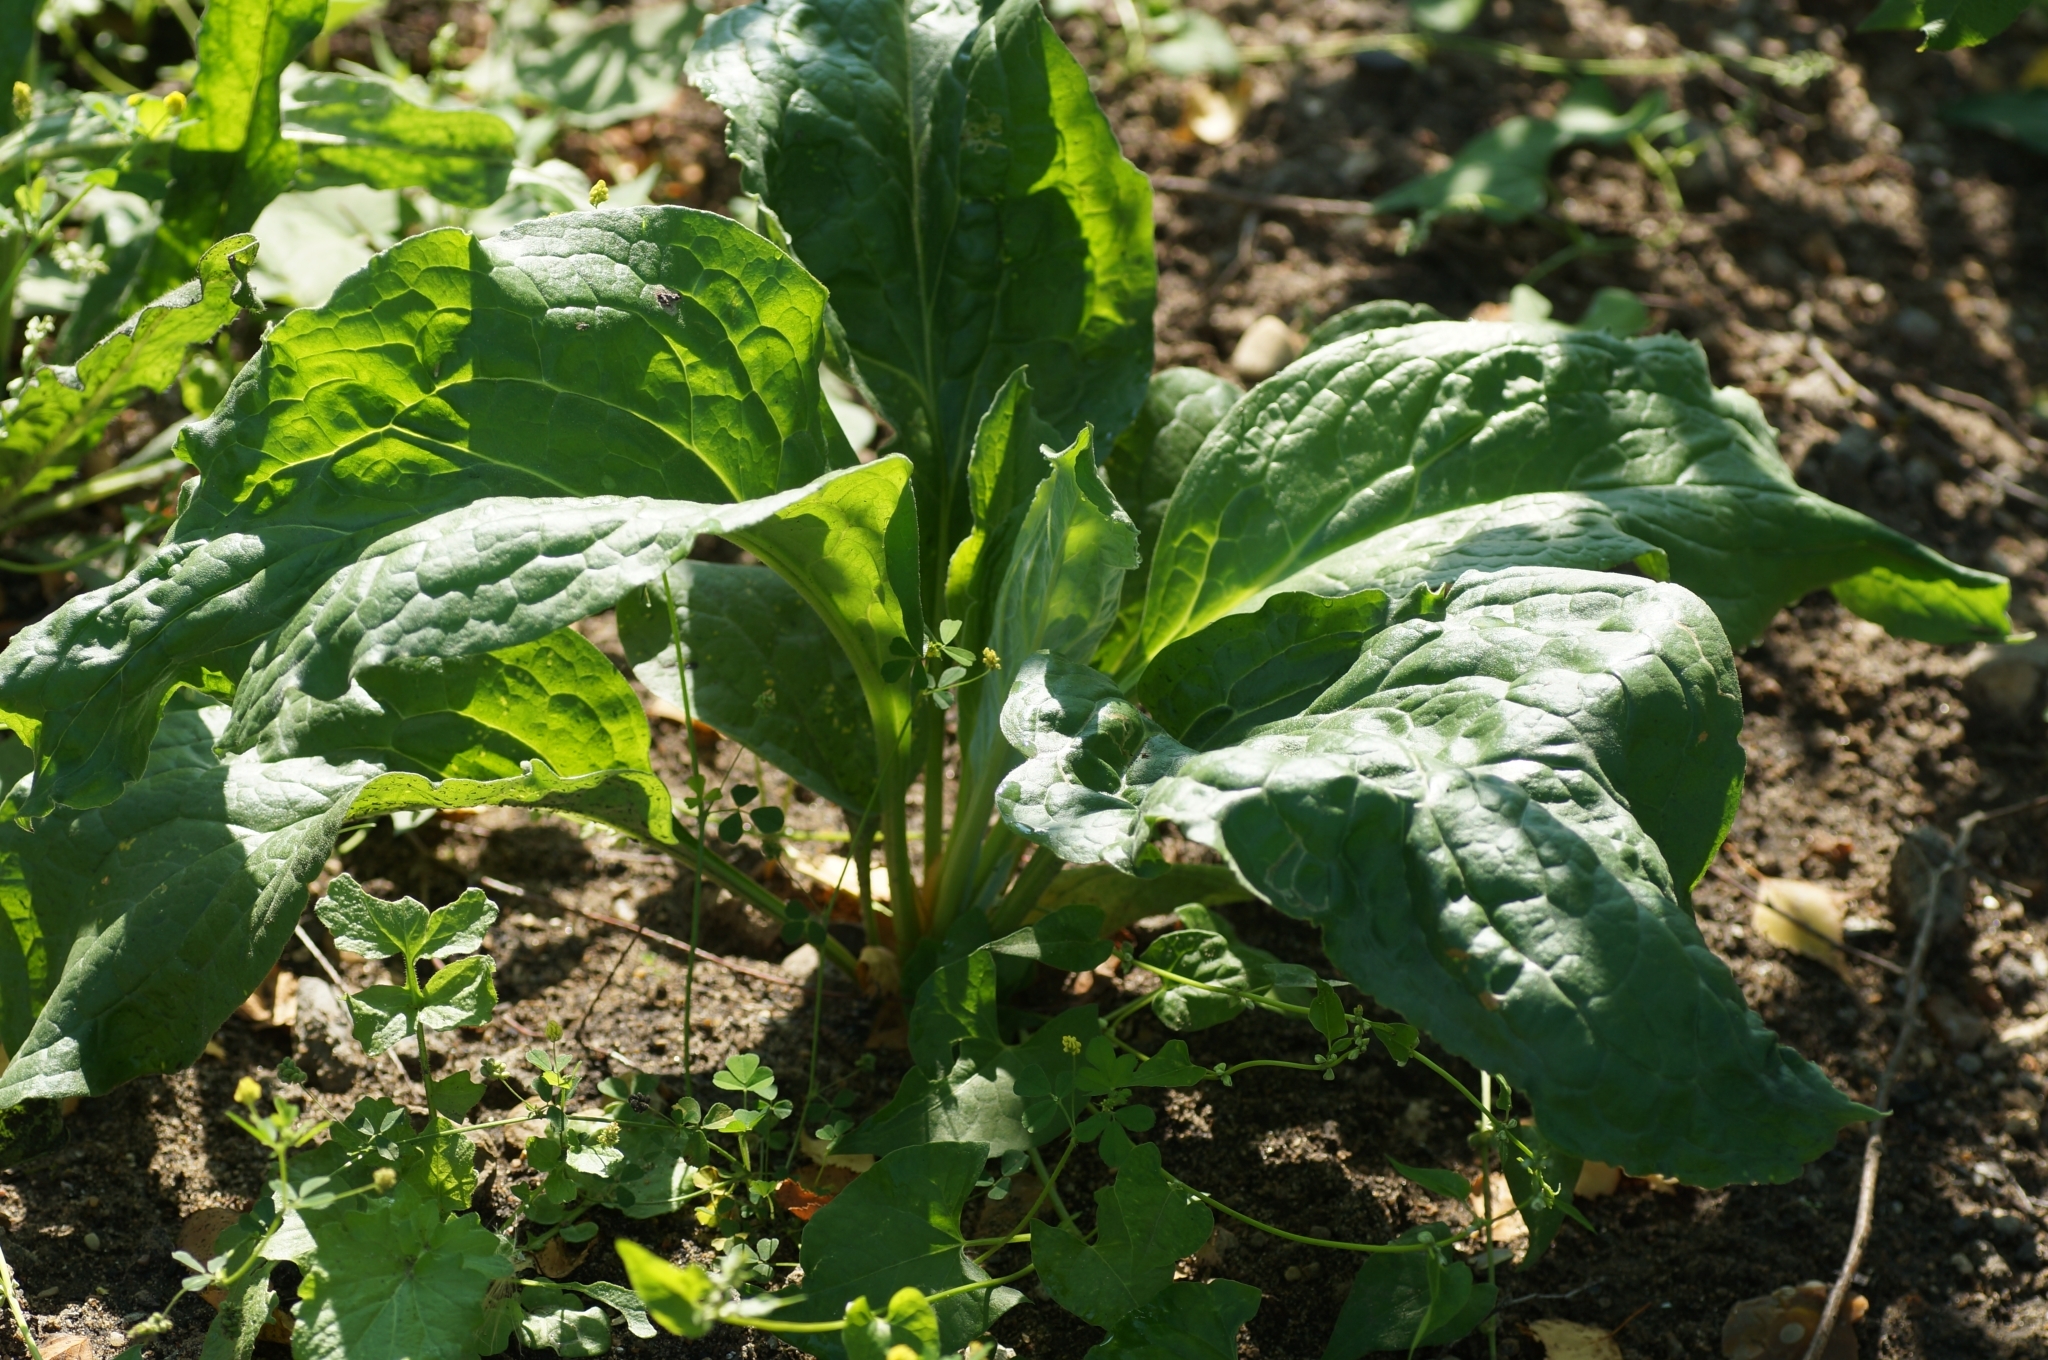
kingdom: Plantae
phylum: Tracheophyta
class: Magnoliopsida
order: Boraginales
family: Boraginaceae
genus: Cynoglossum
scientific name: Cynoglossum officinale
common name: Hound's-tongue
